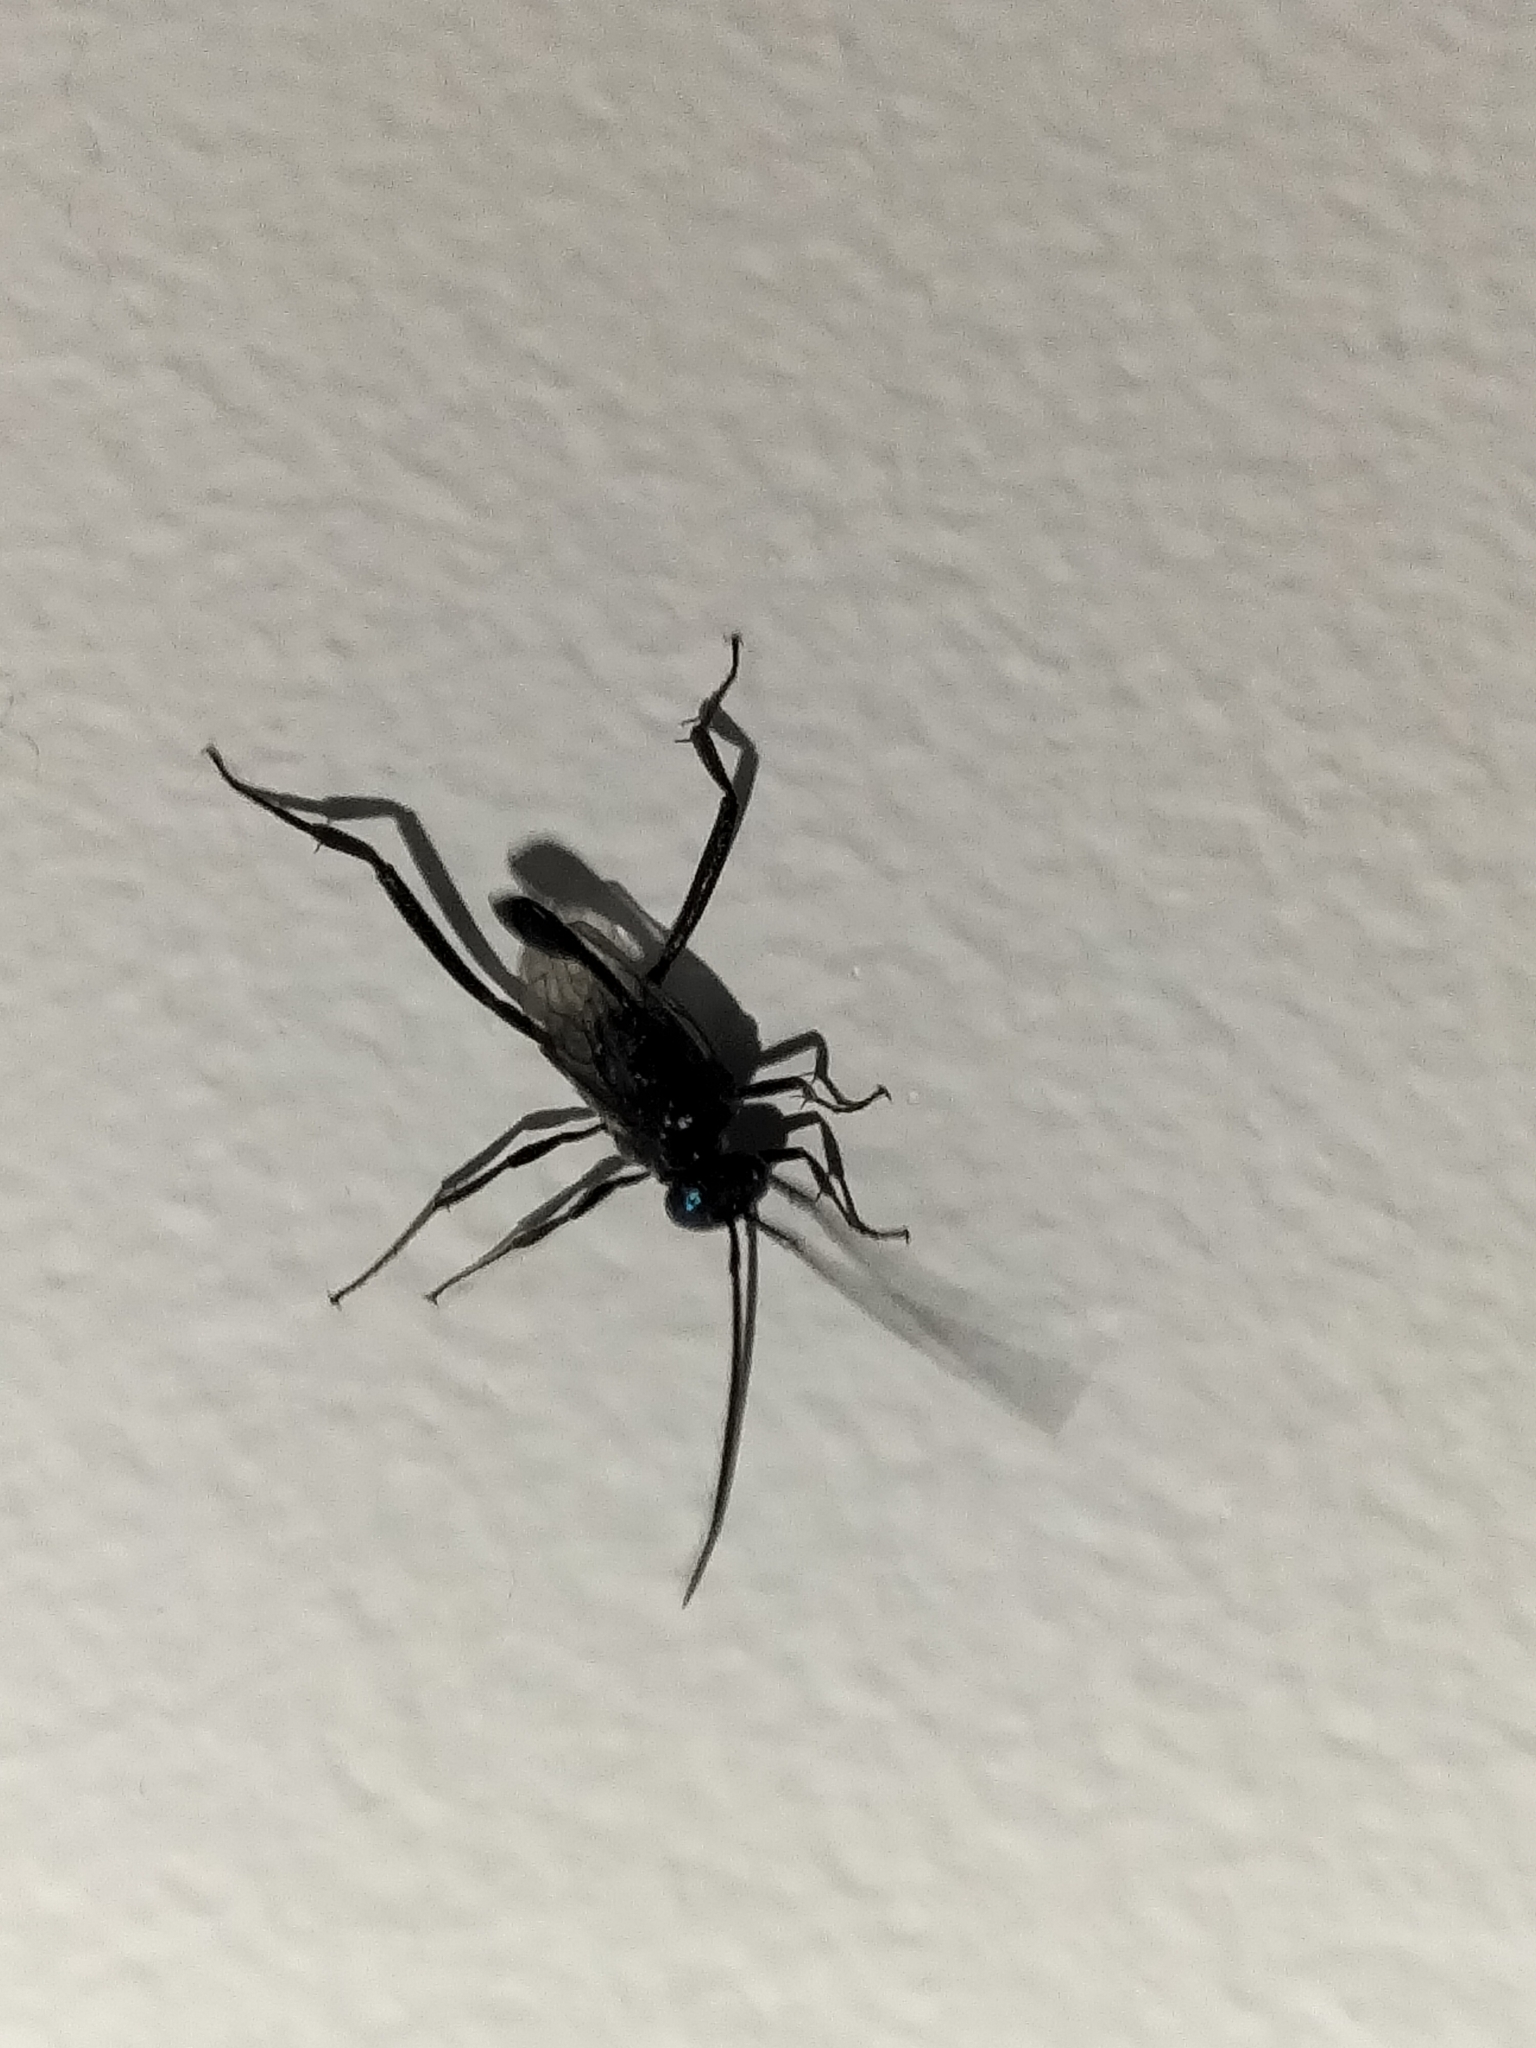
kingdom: Animalia
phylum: Arthropoda
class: Insecta
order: Hymenoptera
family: Evaniidae
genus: Evania
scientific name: Evania appendigaster
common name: Ensign wasp
